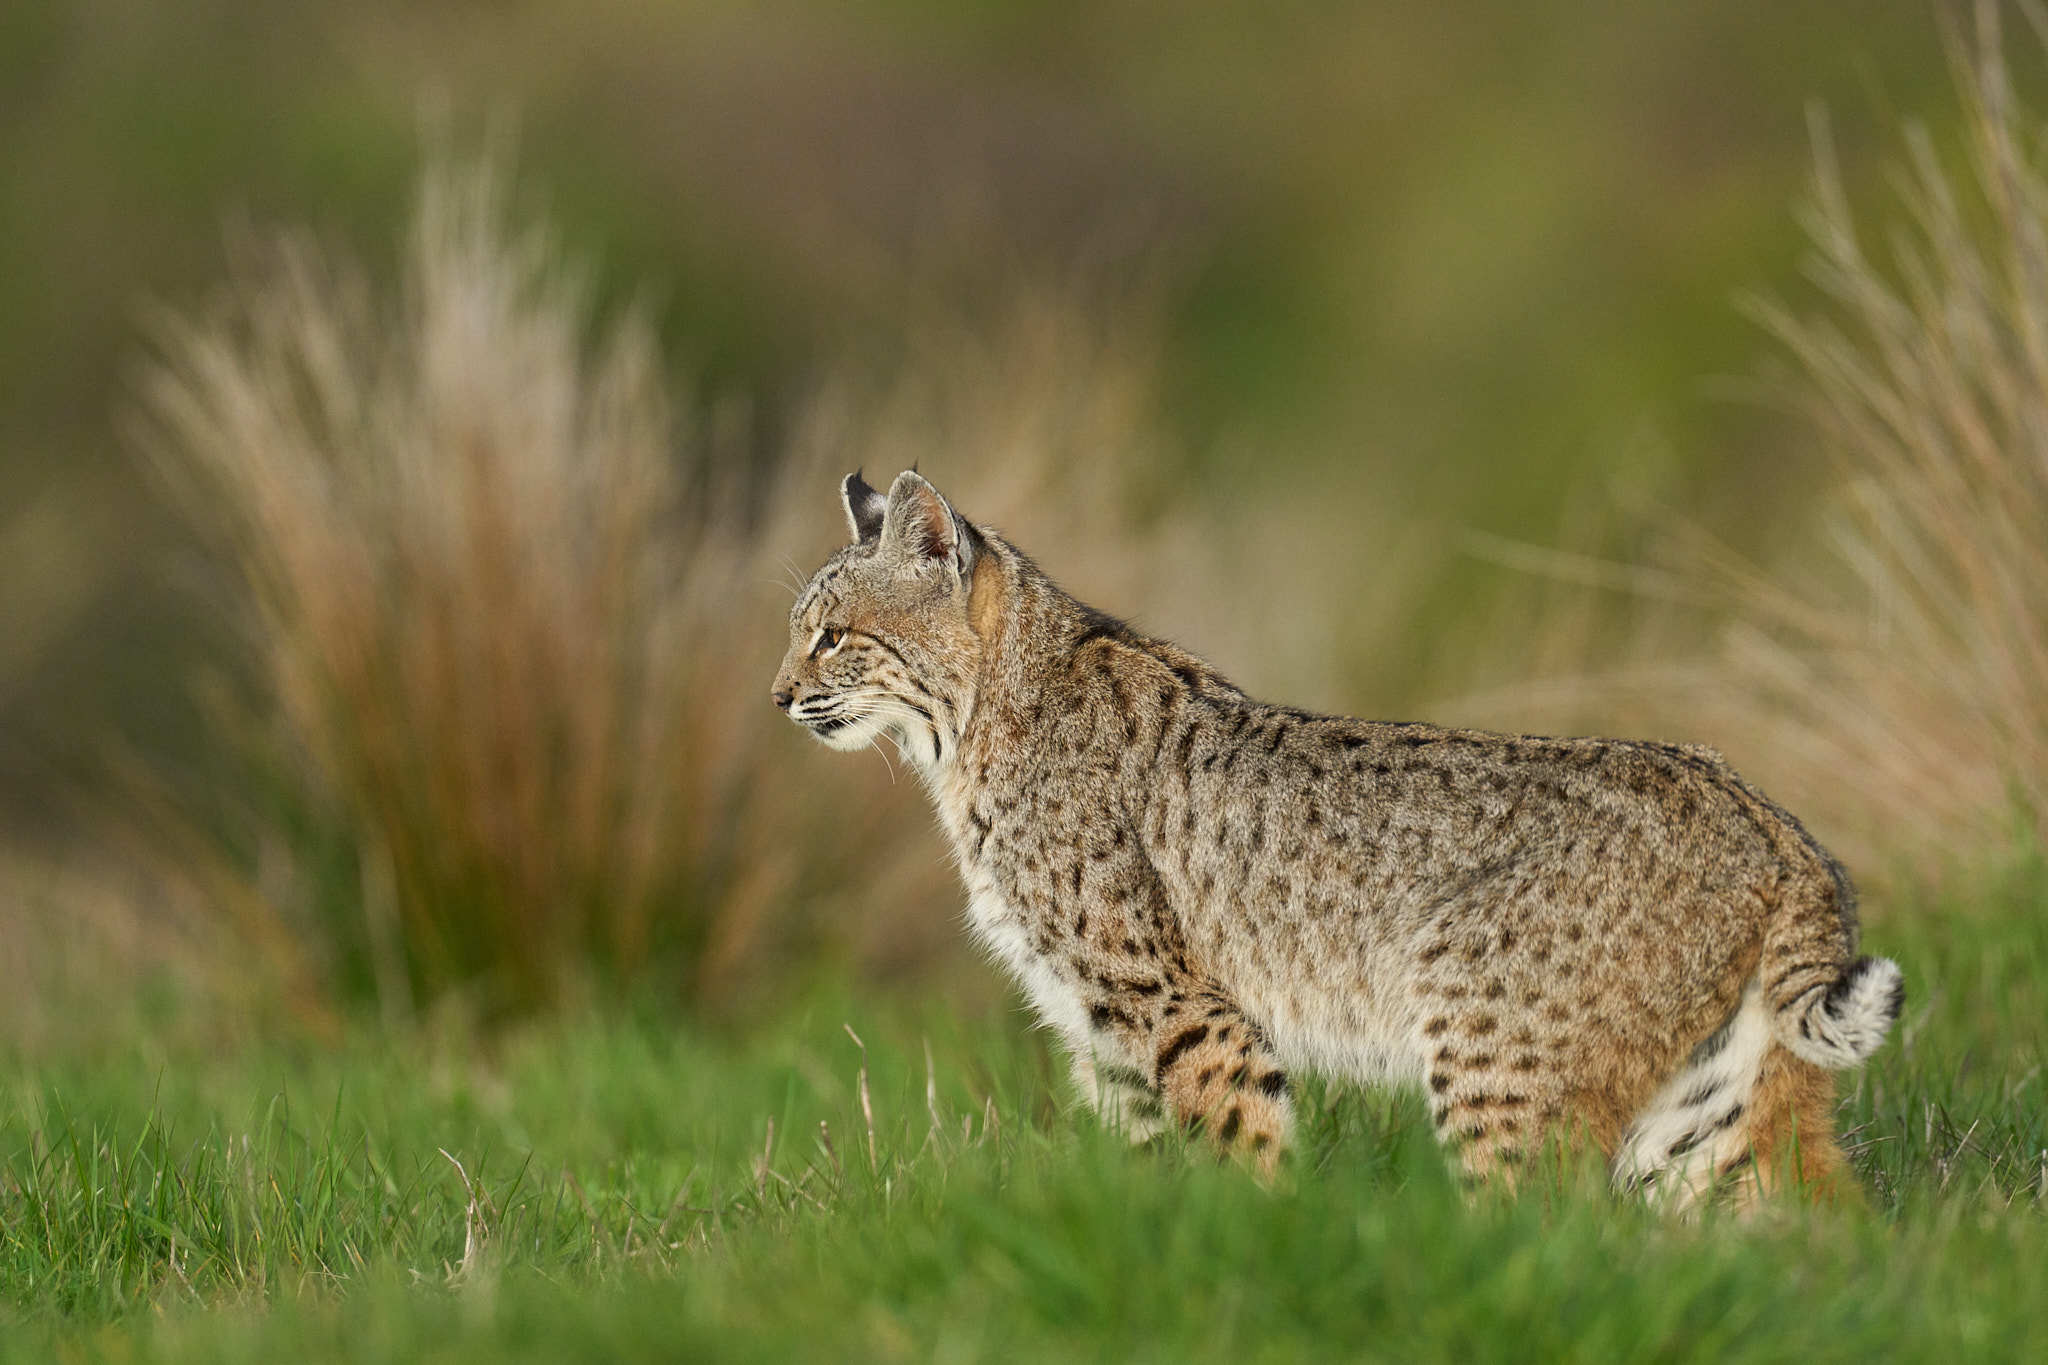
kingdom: Animalia
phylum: Chordata
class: Mammalia
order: Carnivora
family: Felidae
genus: Lynx
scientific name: Lynx rufus
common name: Bobcat
